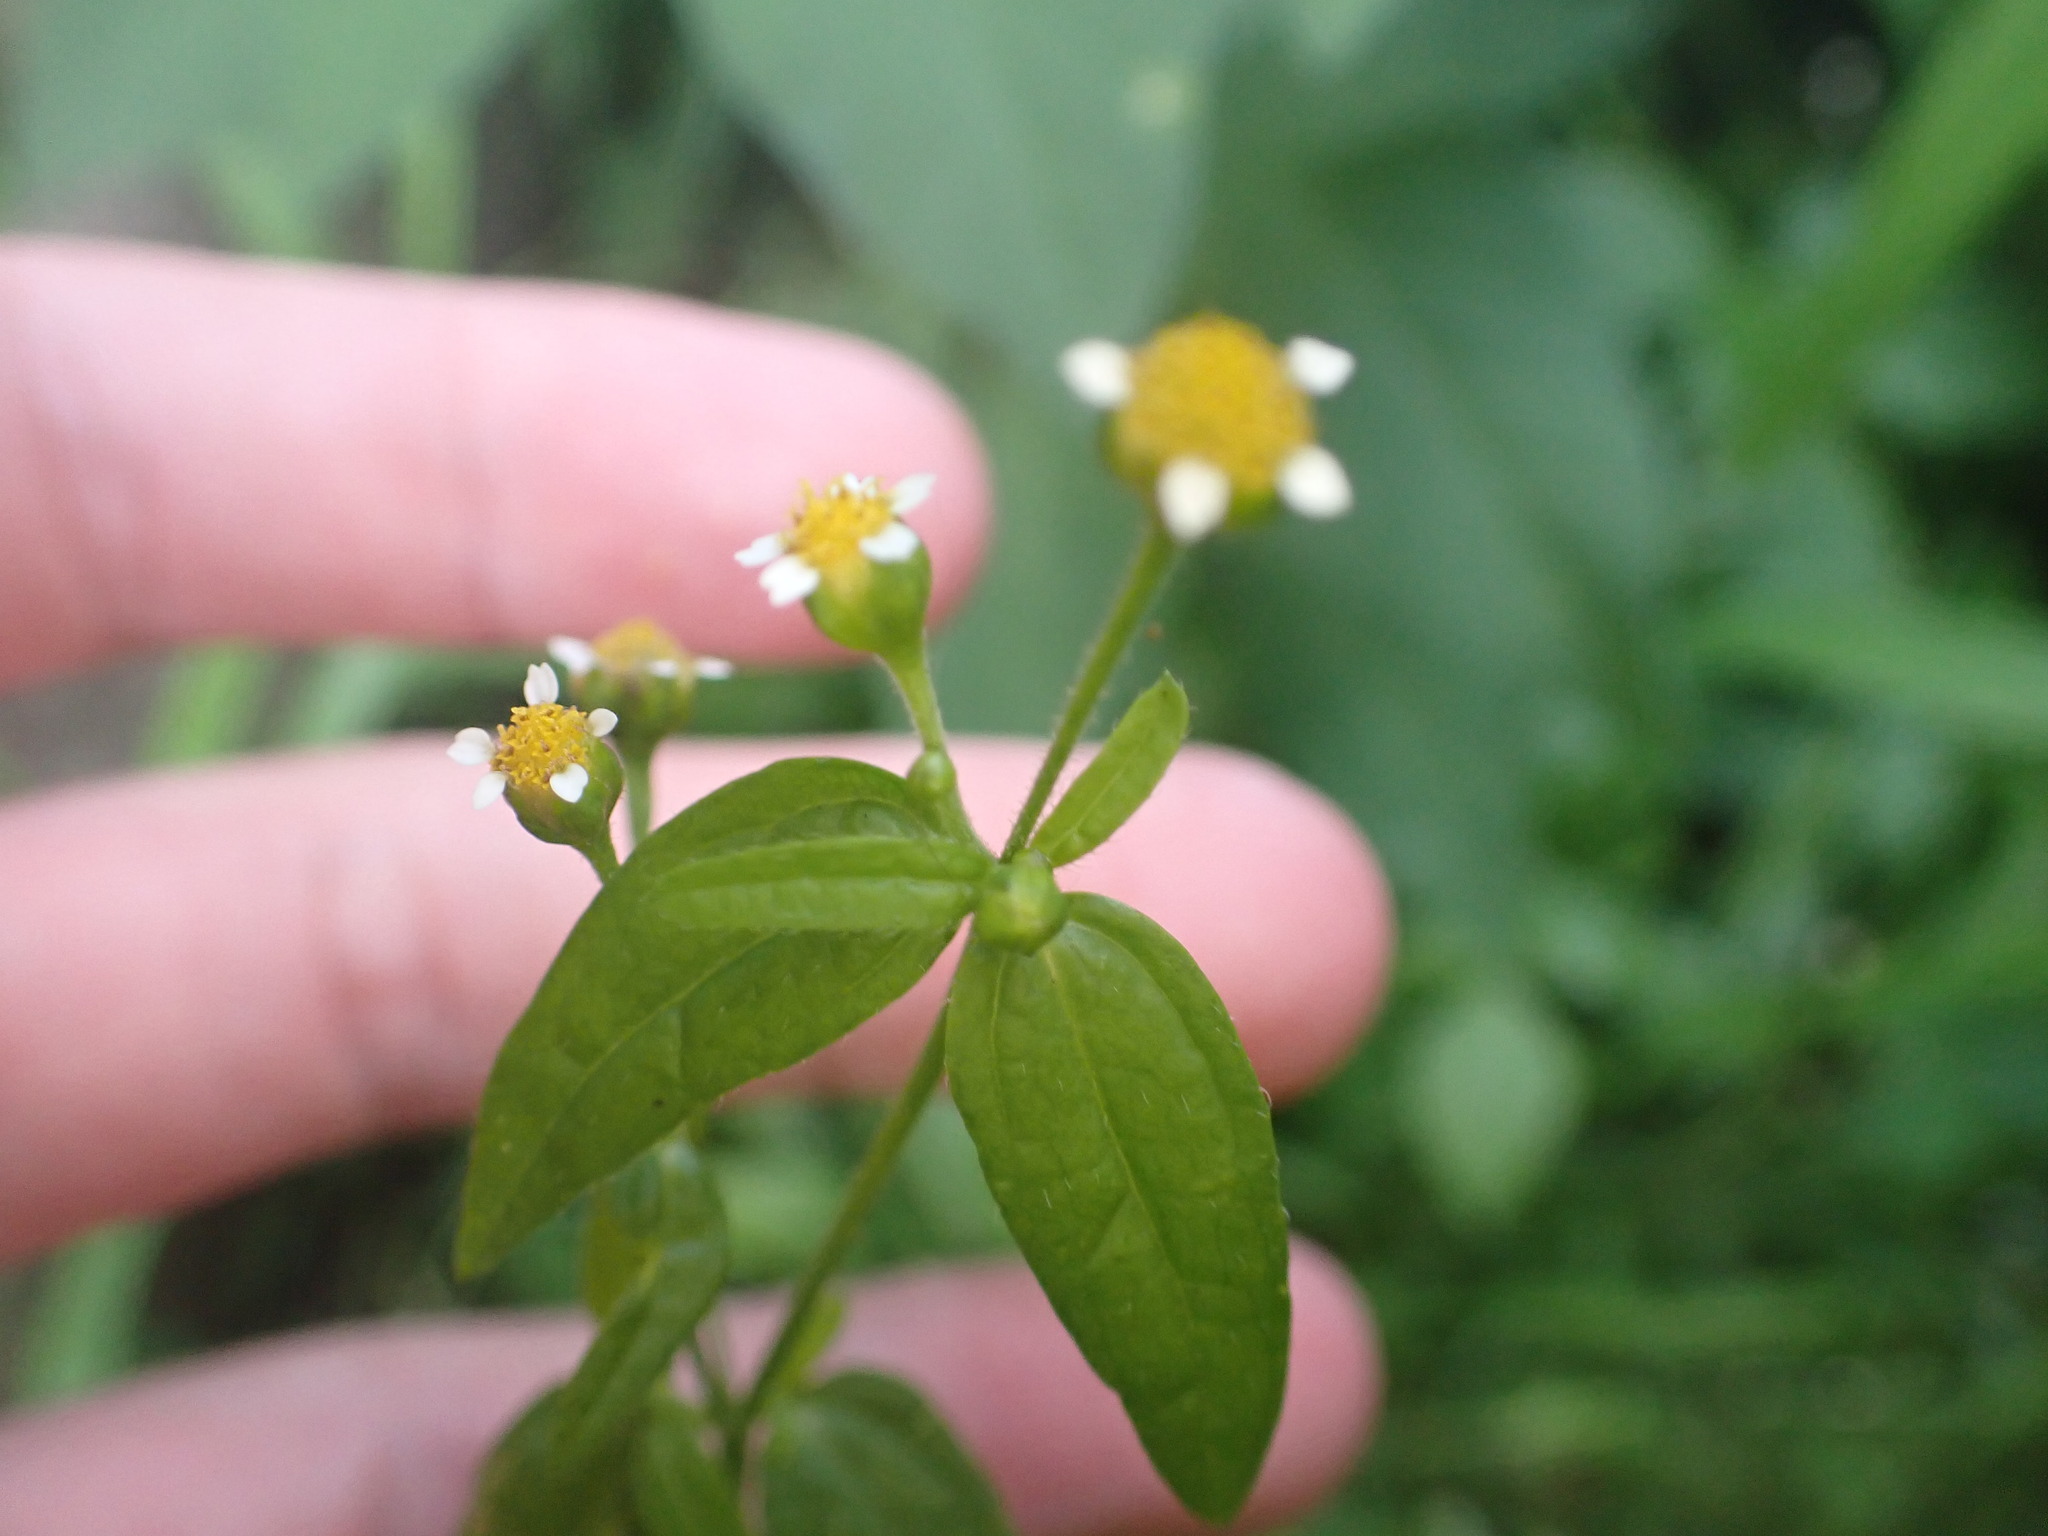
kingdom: Plantae
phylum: Tracheophyta
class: Magnoliopsida
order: Asterales
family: Asteraceae
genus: Galinsoga
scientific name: Galinsoga parviflora
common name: Gallant soldier
